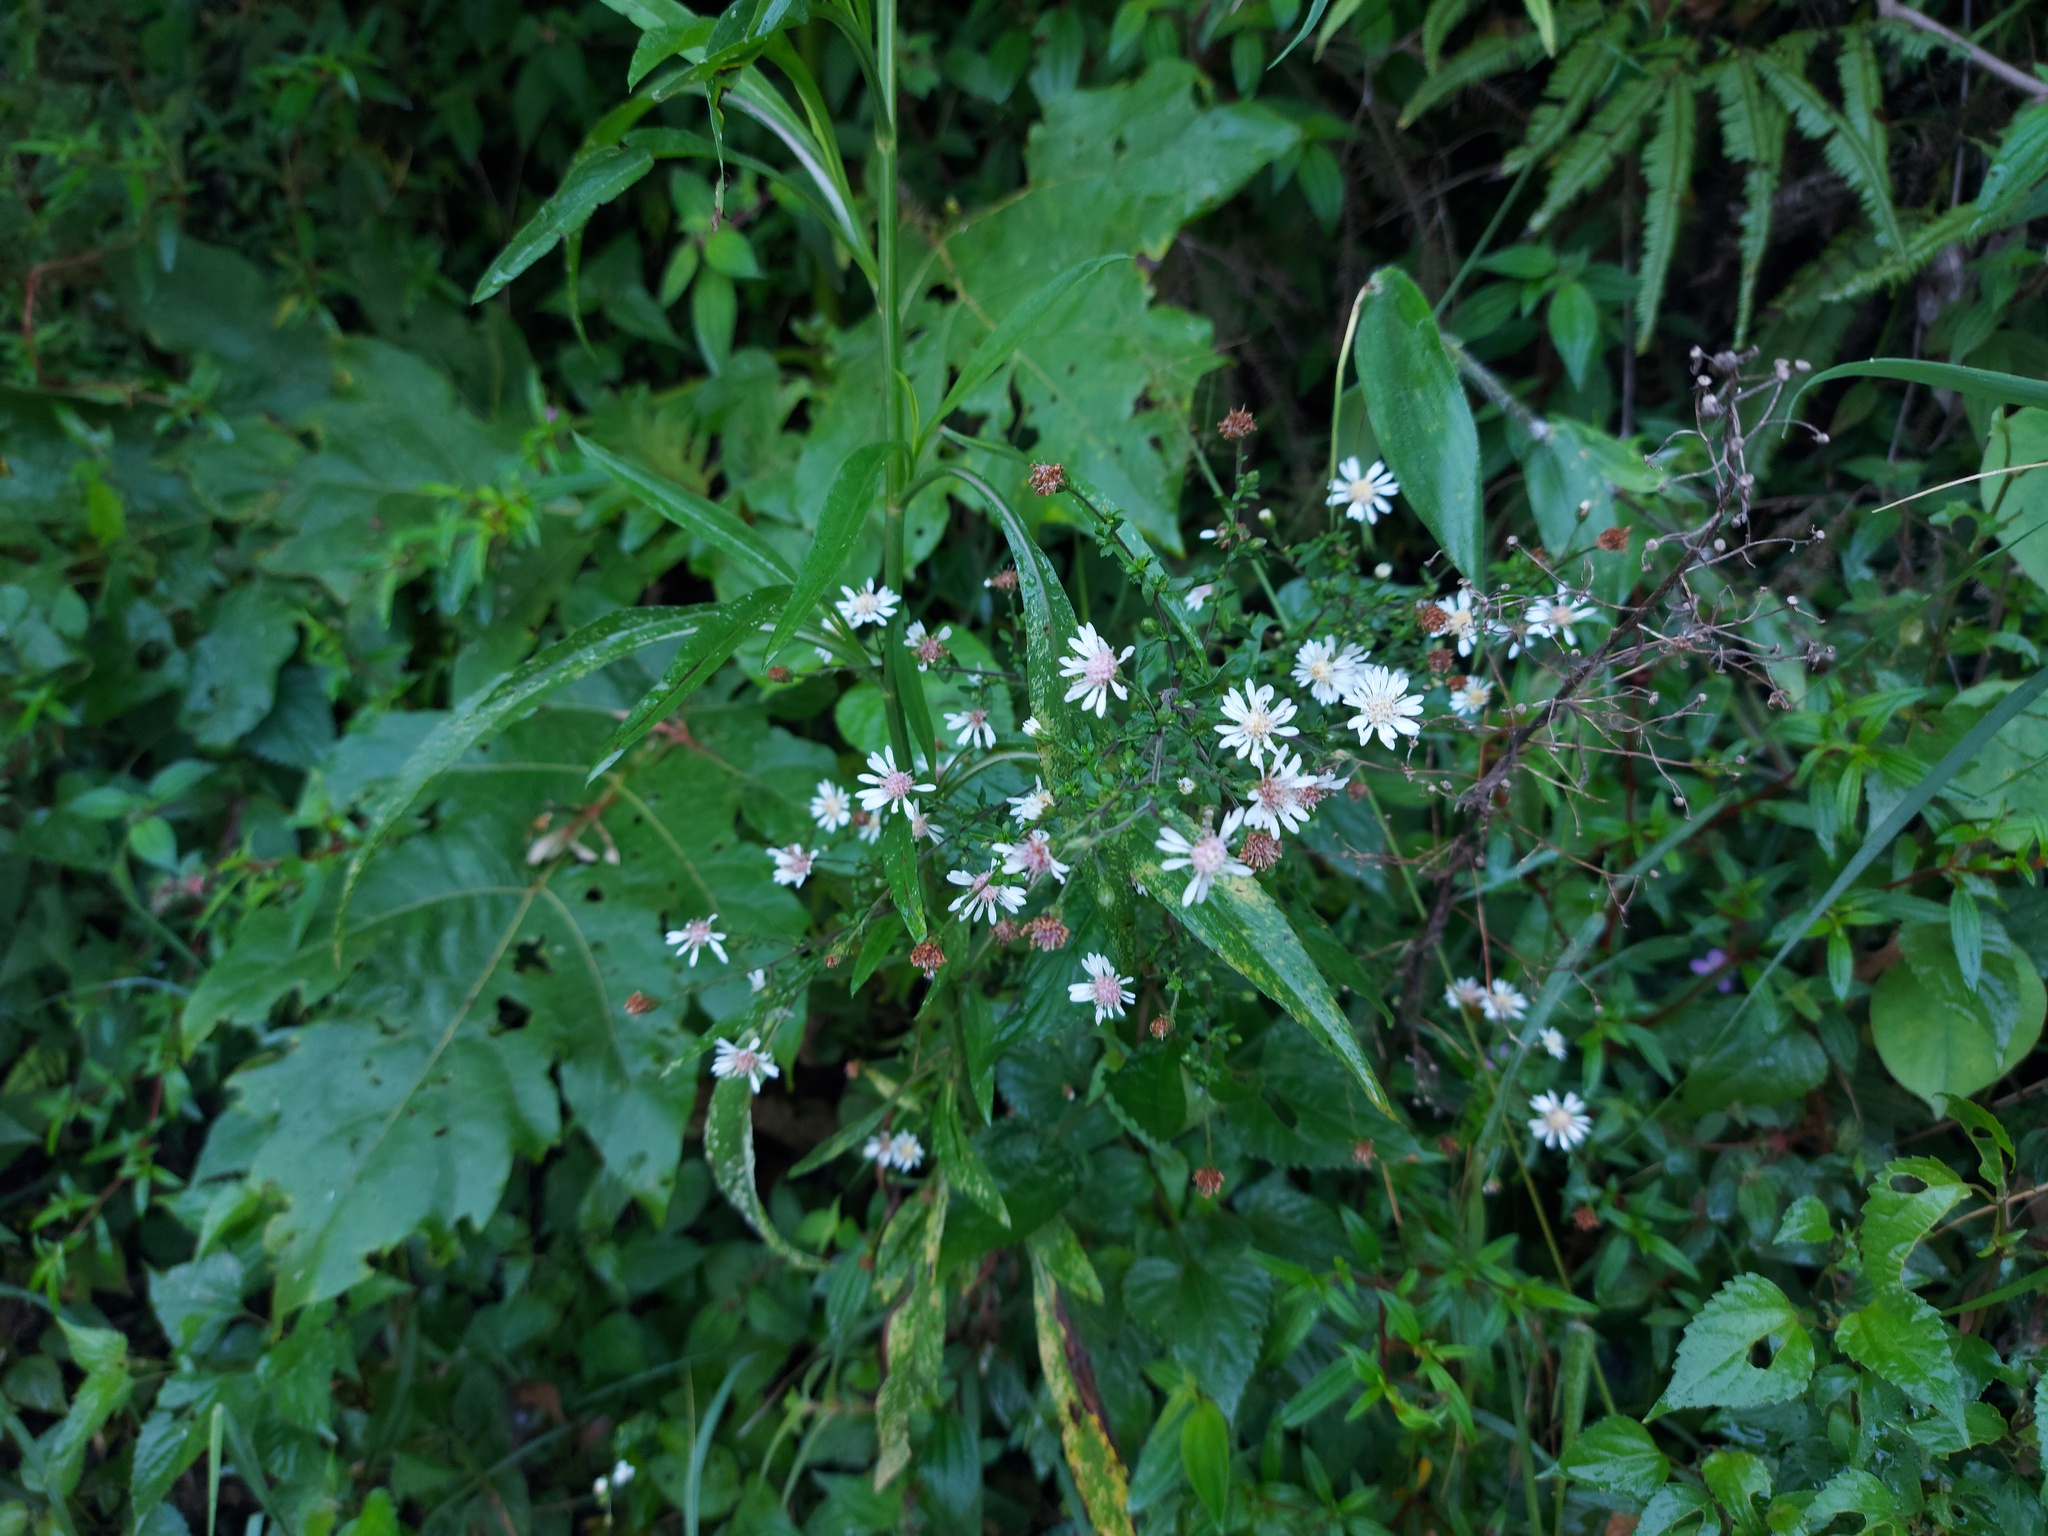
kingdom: Plantae
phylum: Tracheophyta
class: Magnoliopsida
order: Asterales
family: Asteraceae
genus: Symphyotrichum
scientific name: Symphyotrichum schaffneri
